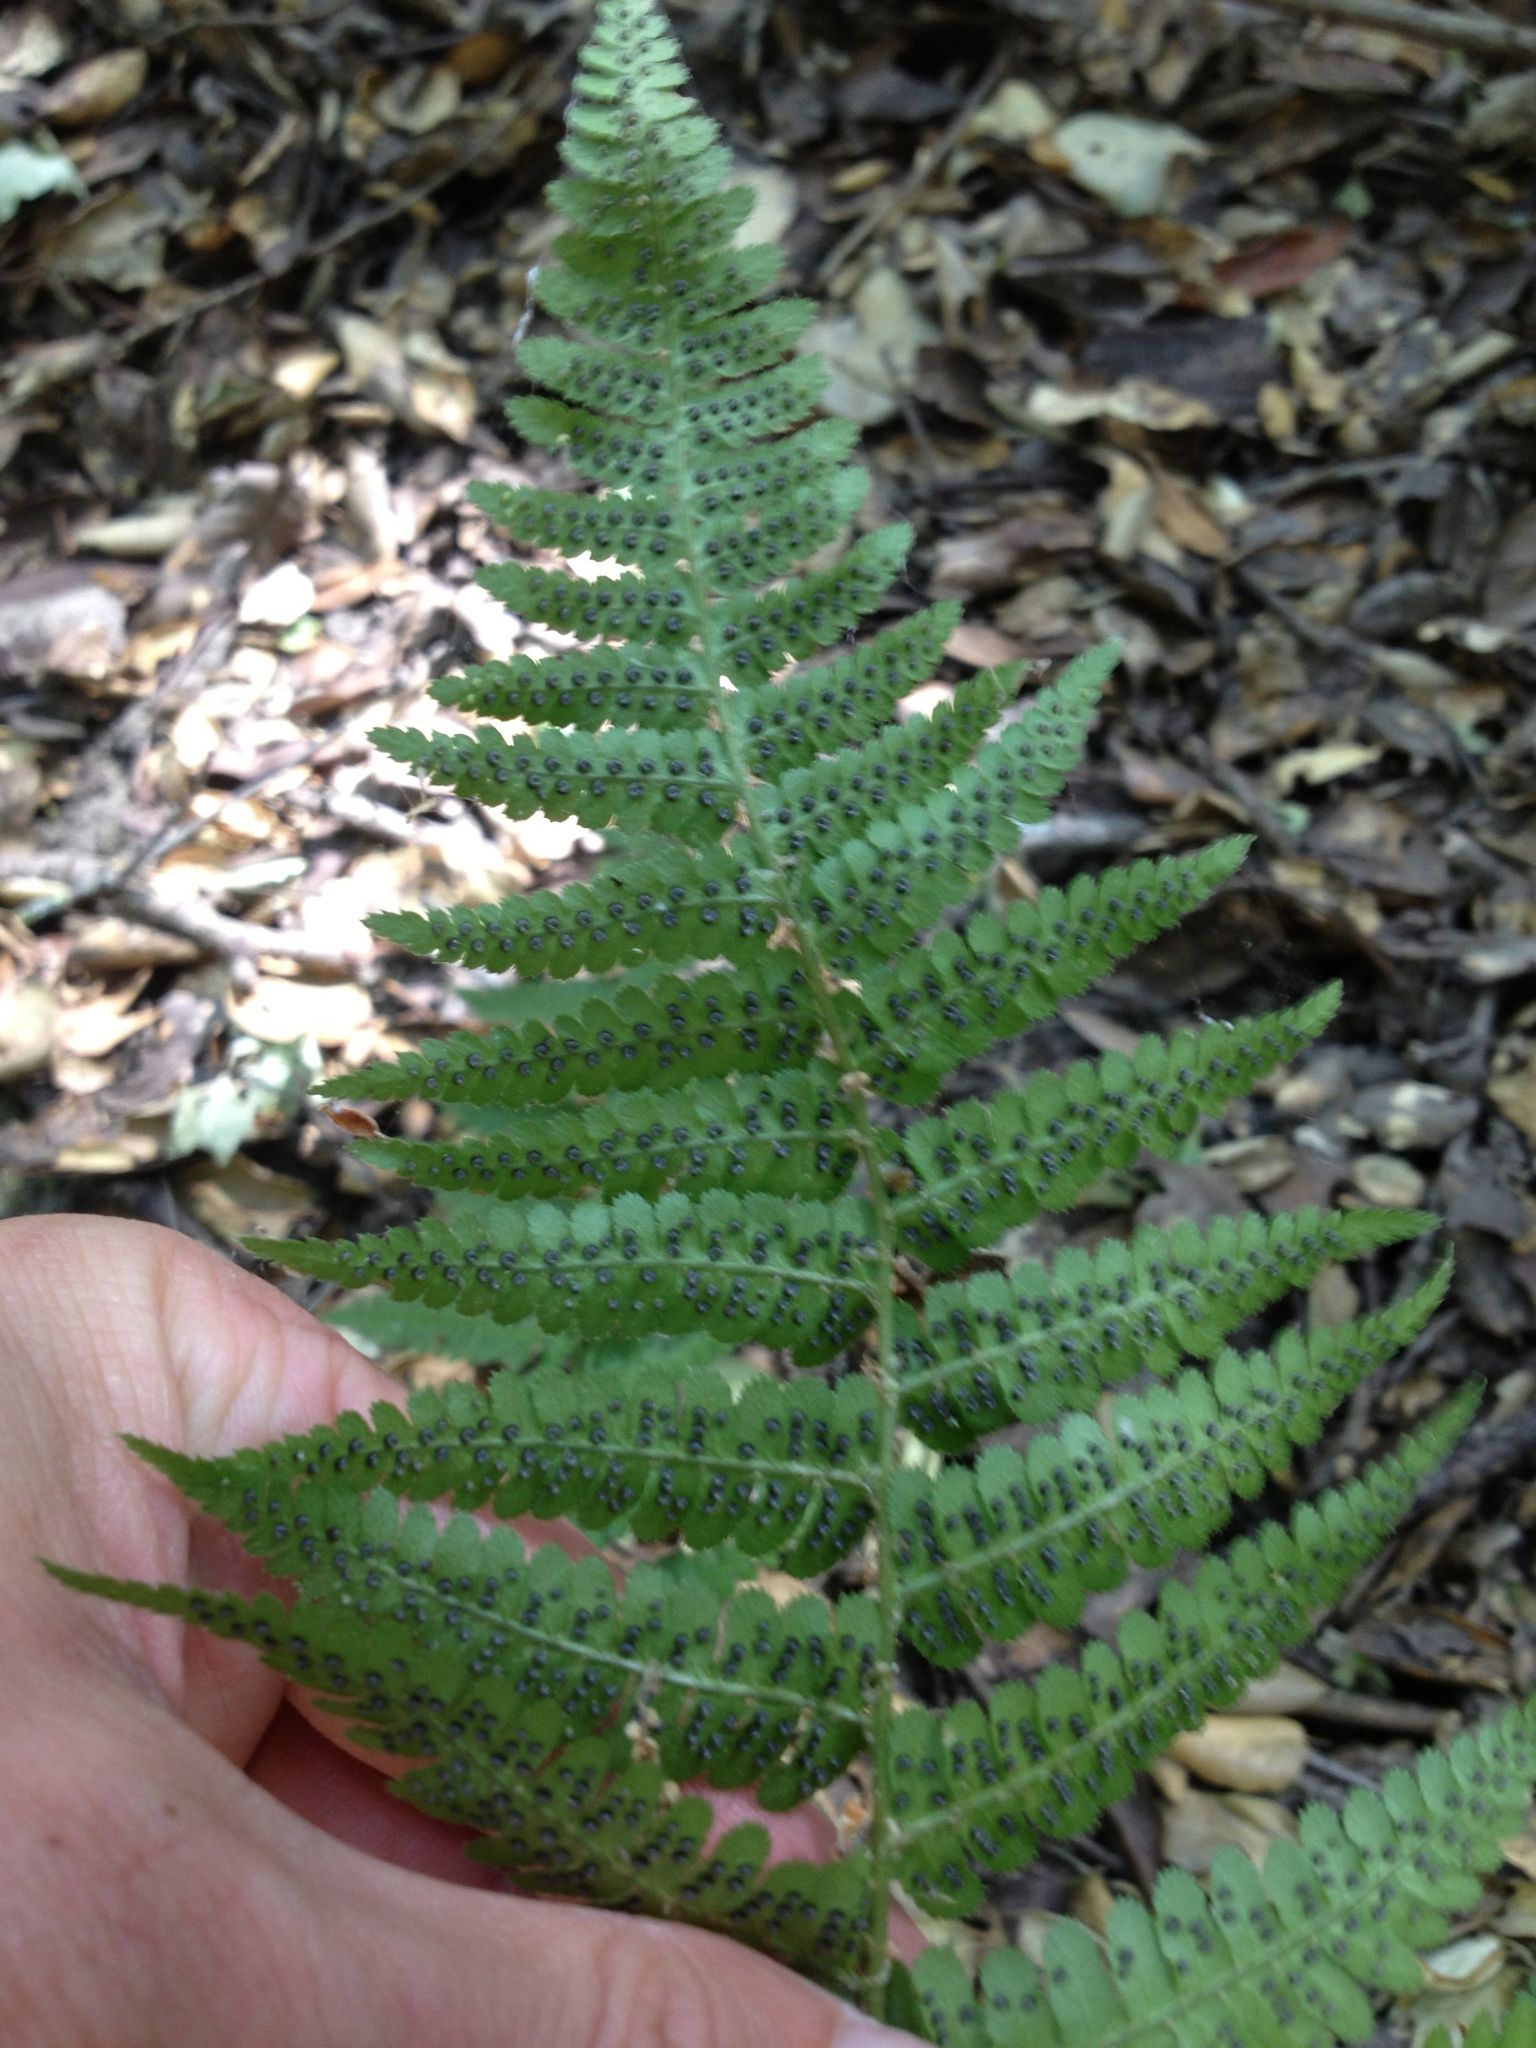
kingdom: Plantae
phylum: Tracheophyta
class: Polypodiopsida
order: Polypodiales
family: Dryopteridaceae
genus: Dryopteris
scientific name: Dryopteris arguta
